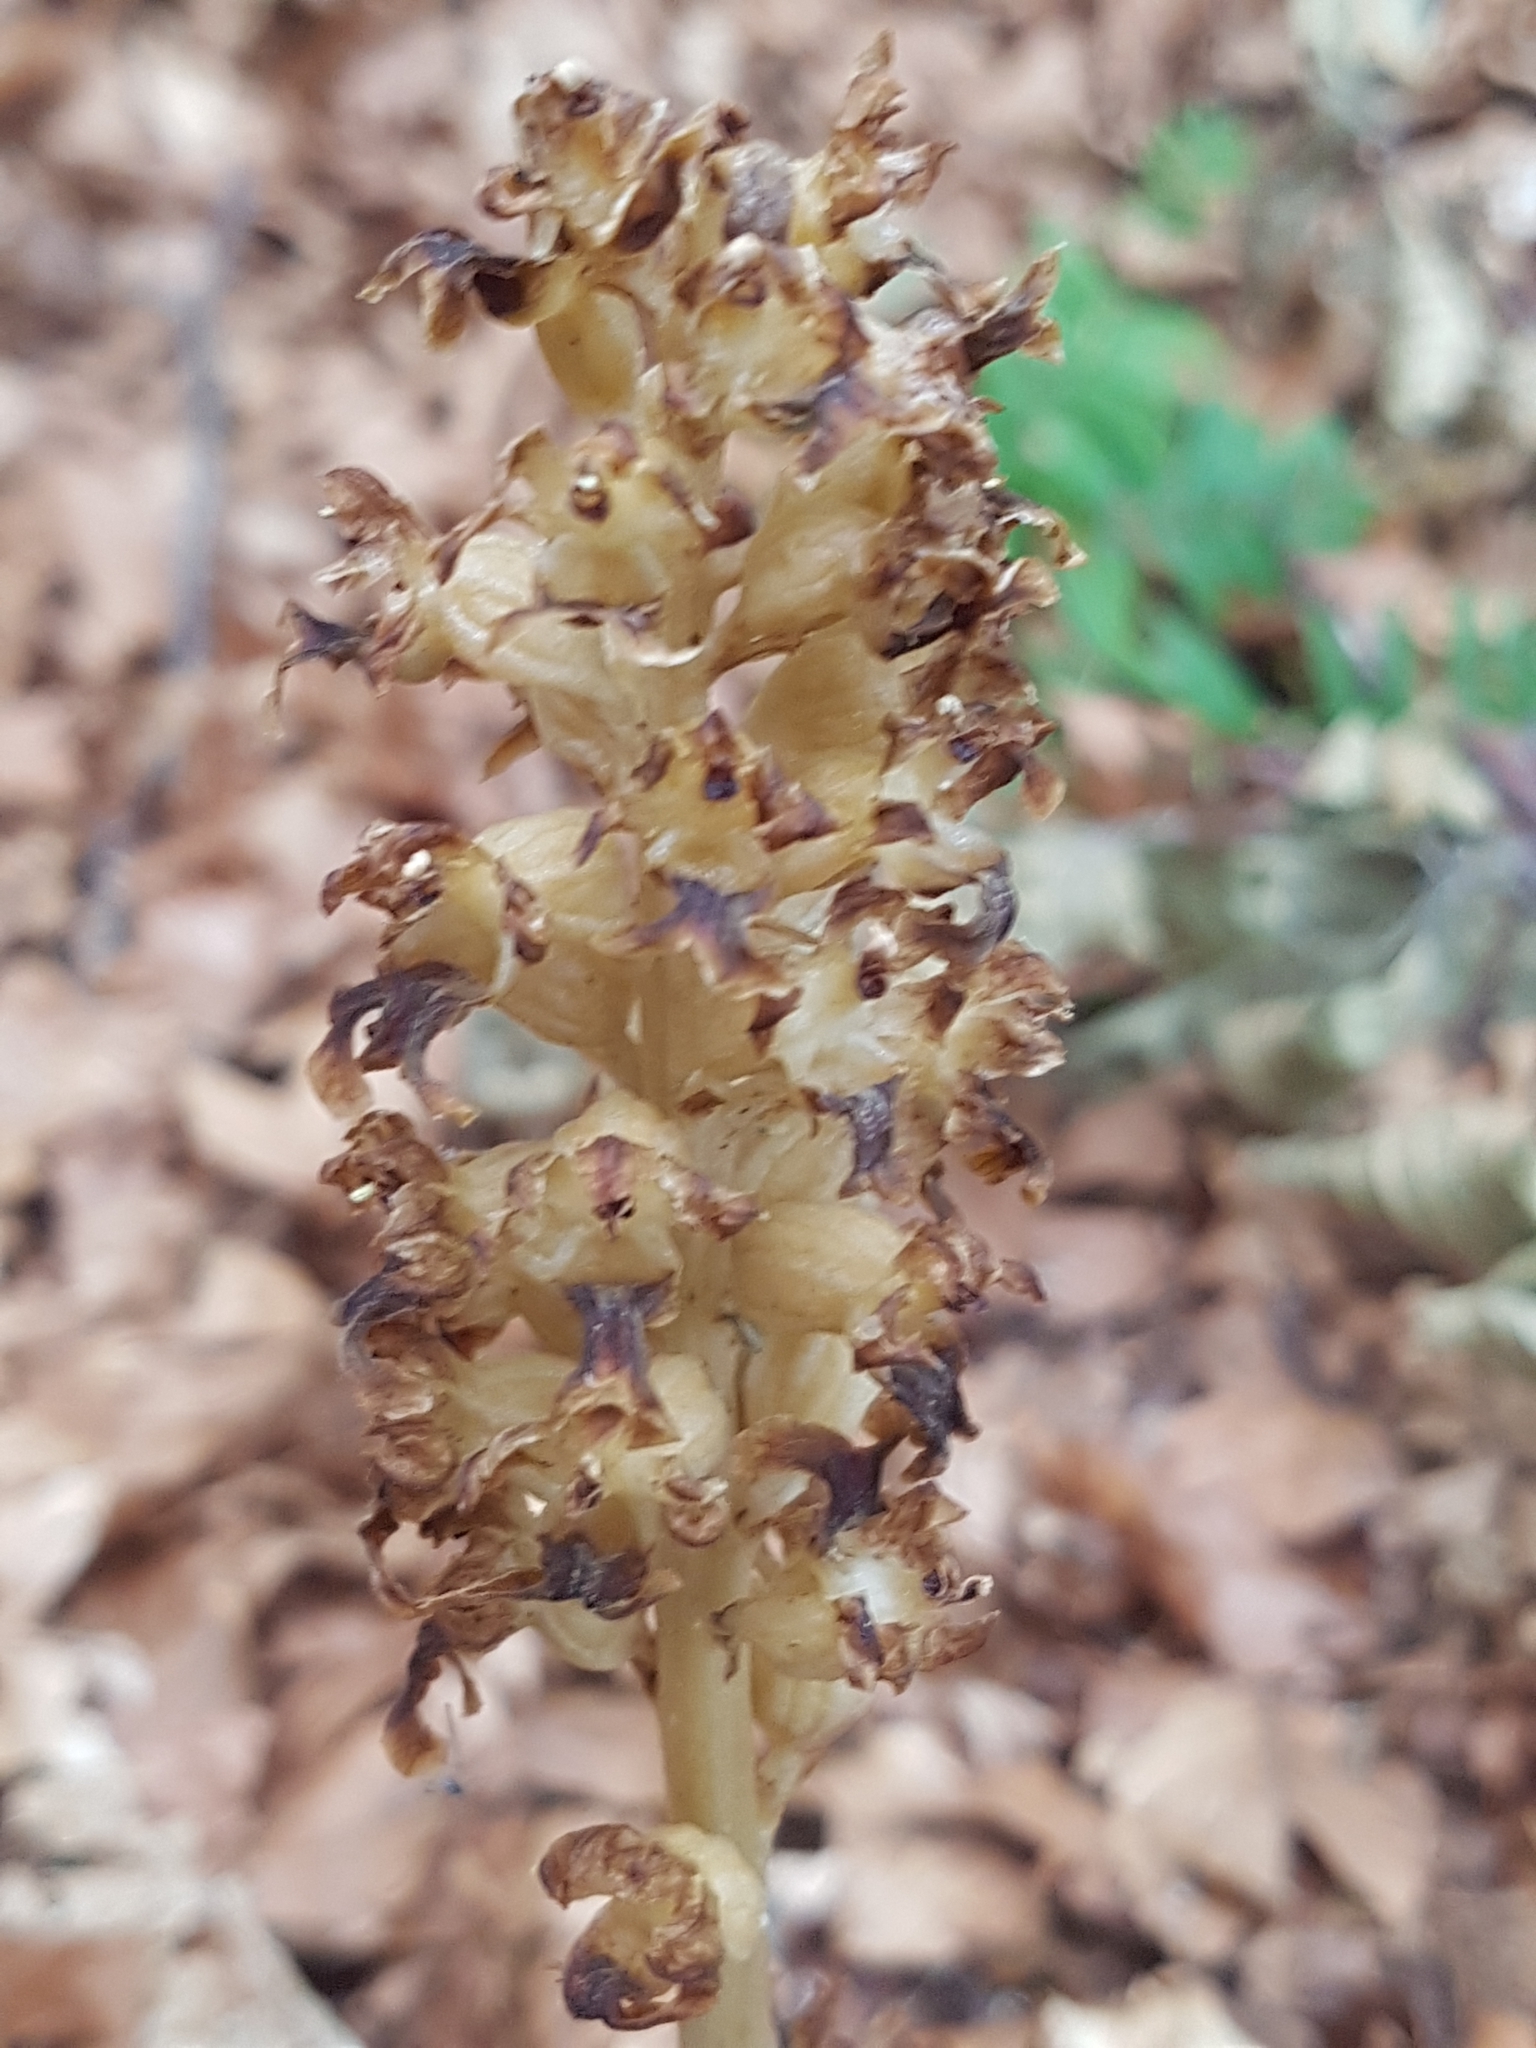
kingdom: Plantae
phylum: Tracheophyta
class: Liliopsida
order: Asparagales
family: Orchidaceae
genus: Neottia
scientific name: Neottia nidus-avis
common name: Bird's-nest orchid
